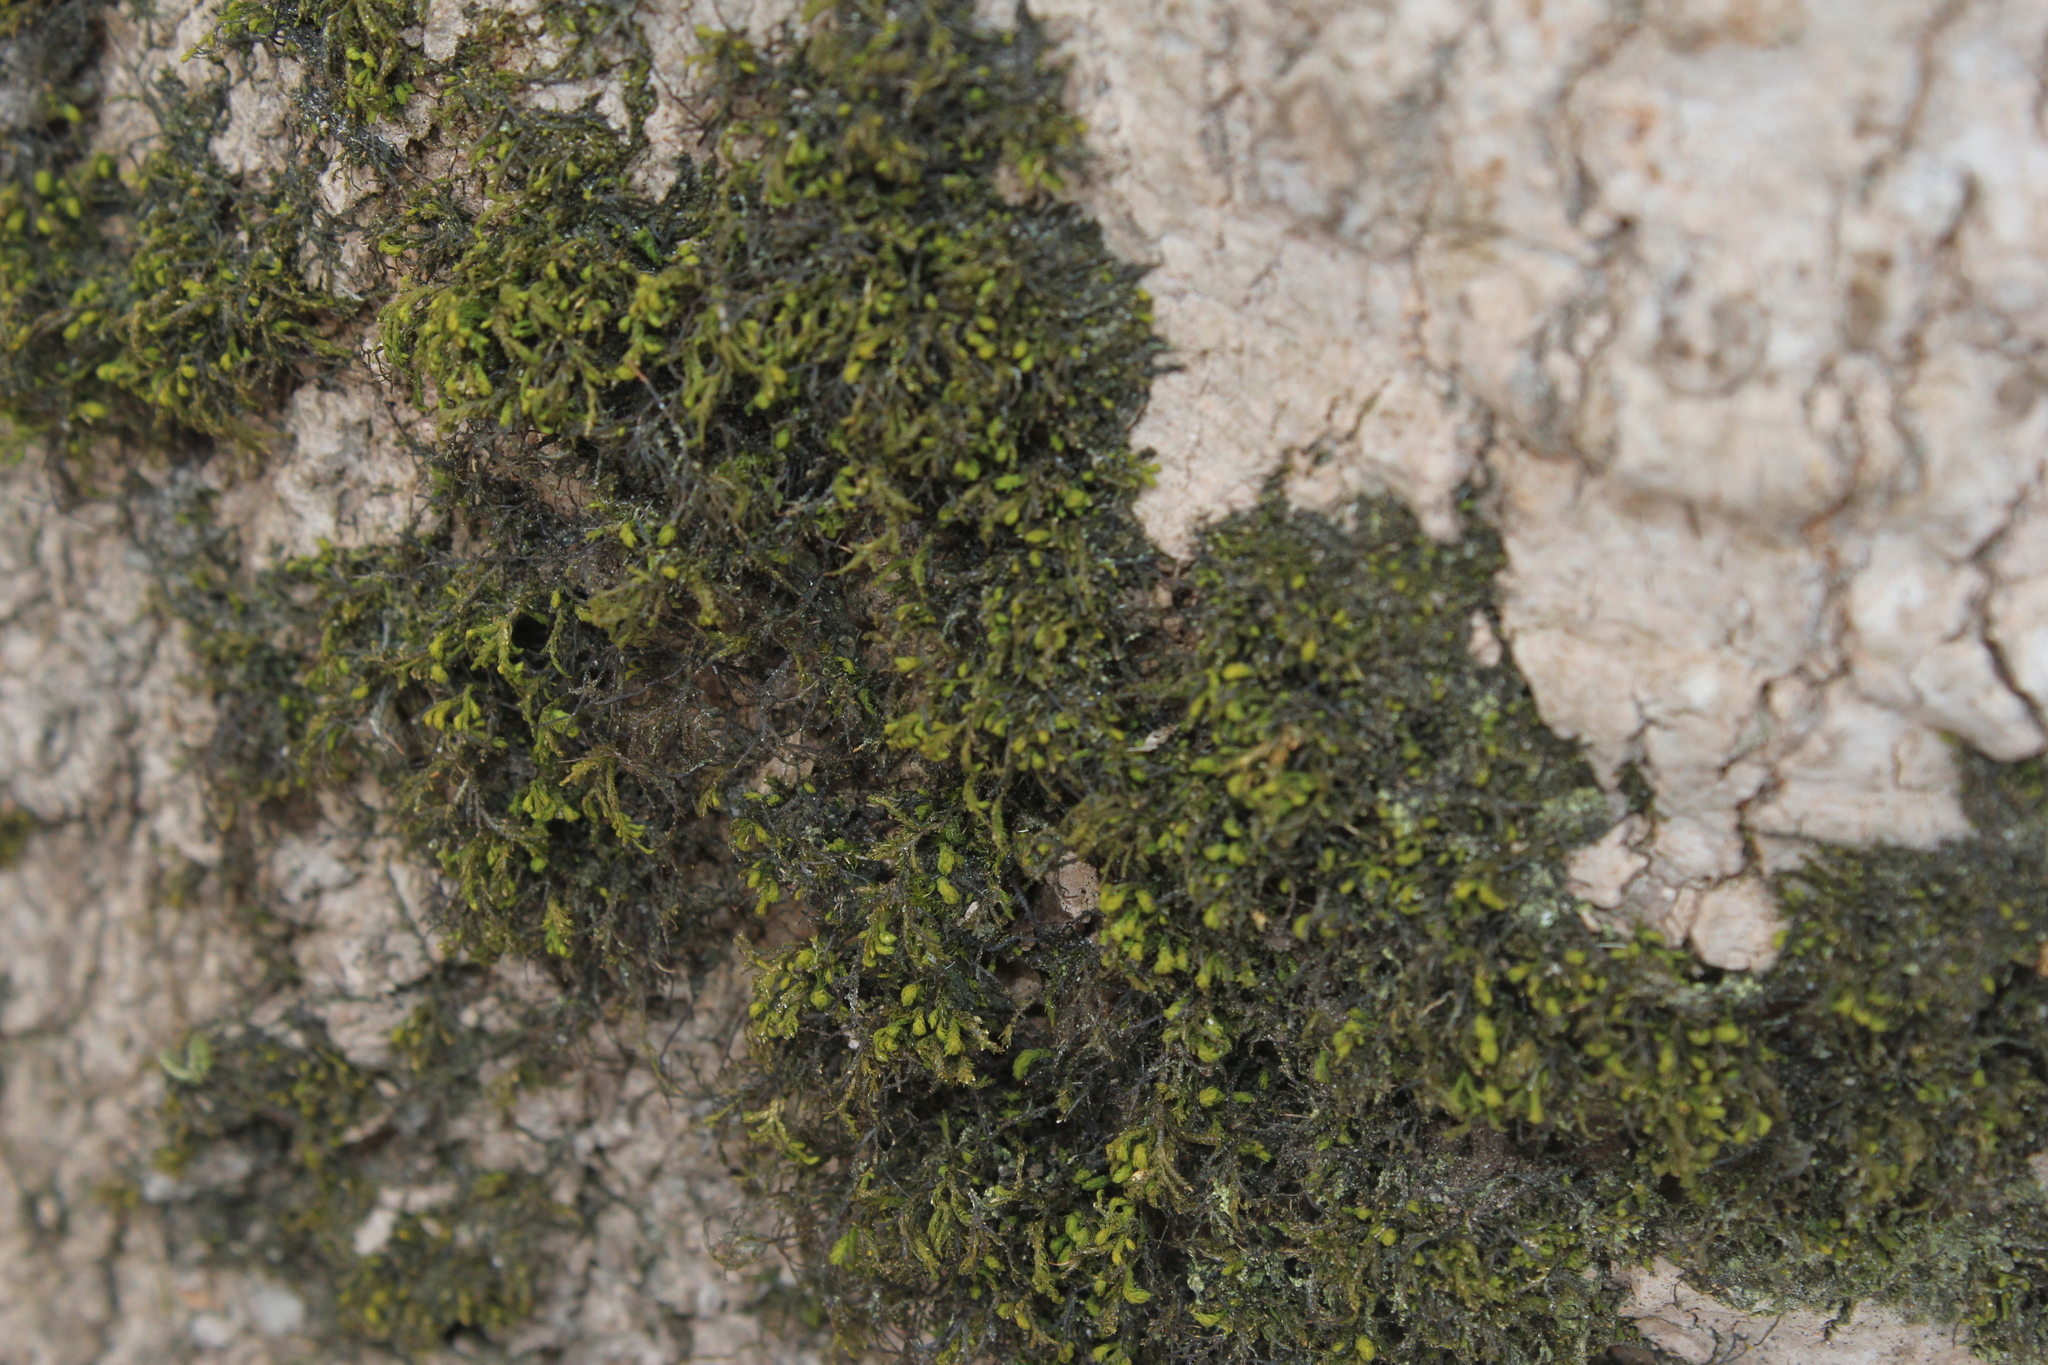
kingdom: Plantae
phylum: Bryophyta
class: Bryopsida
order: Hypnales
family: Neckeraceae
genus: Pseudanomodon
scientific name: Pseudanomodon attenuatus
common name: Tree-skirt moss
